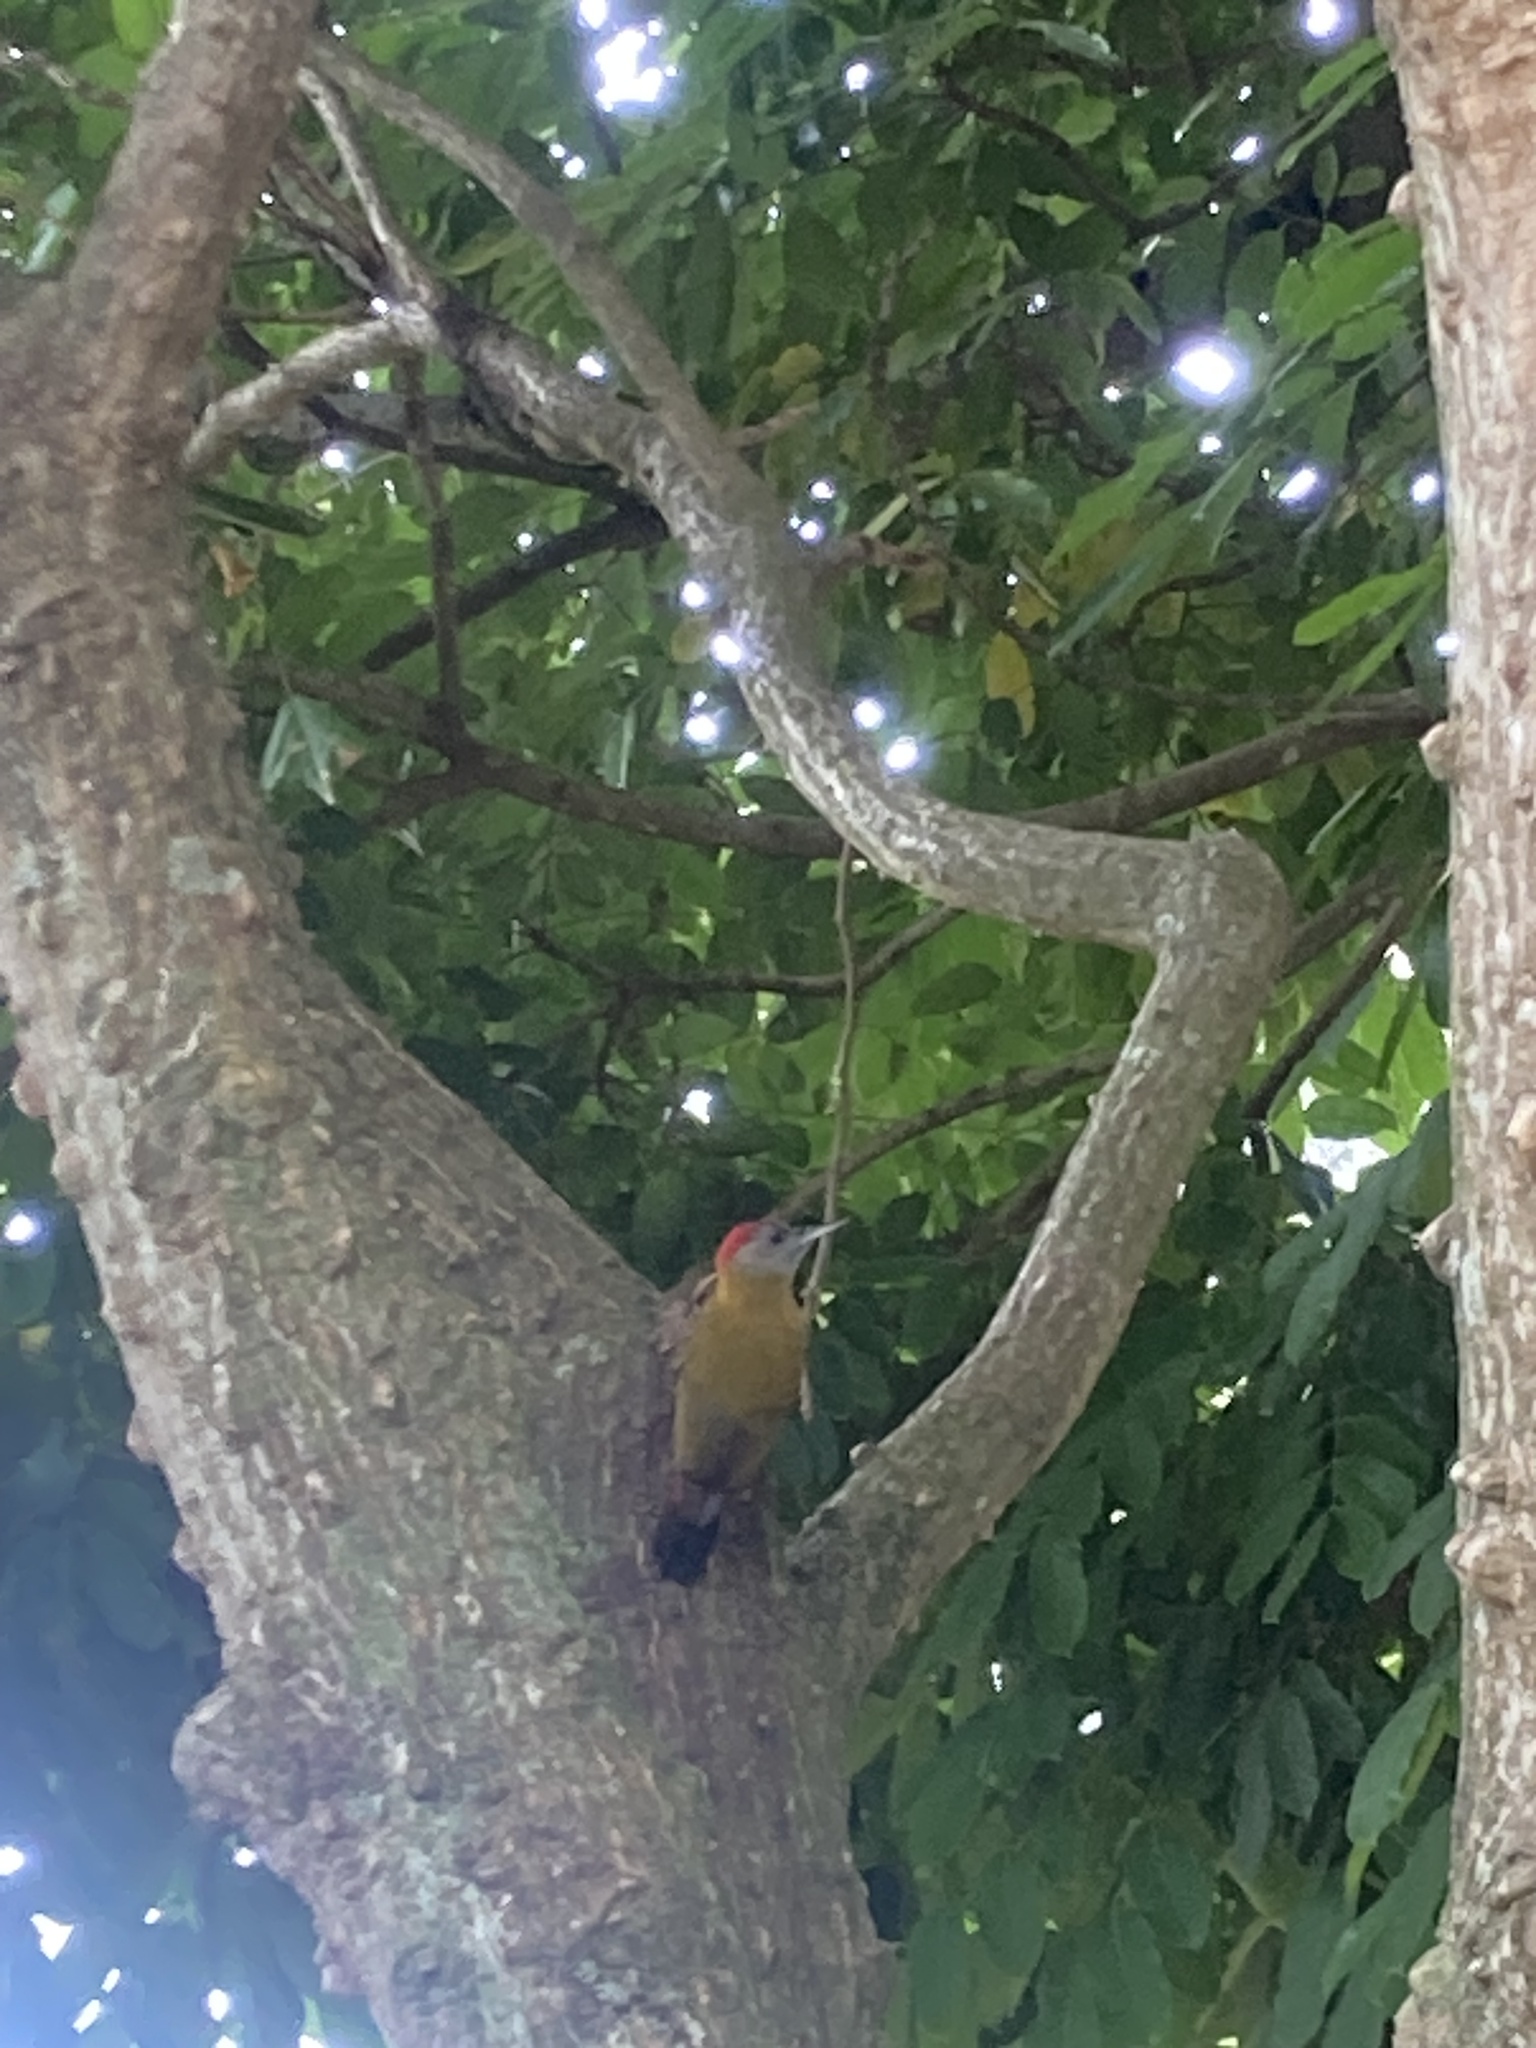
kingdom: Animalia
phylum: Chordata
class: Aves
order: Piciformes
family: Picidae
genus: Dendropicos
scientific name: Dendropicos griseocephalus
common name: Olive woodpecker
